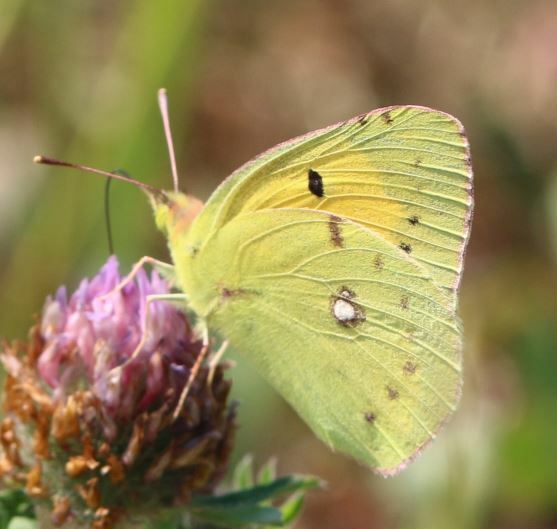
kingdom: Animalia
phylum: Arthropoda
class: Insecta
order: Lepidoptera
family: Pieridae
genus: Colias
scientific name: Colias croceus
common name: Clouded yellow
